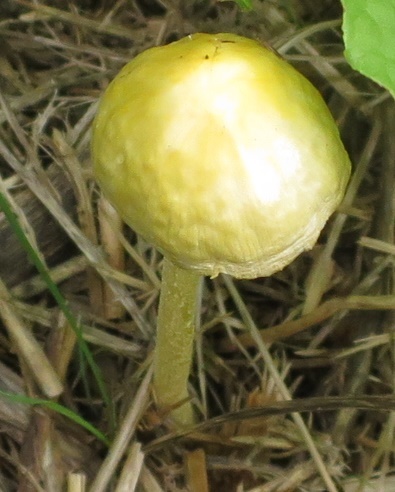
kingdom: Fungi
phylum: Basidiomycota
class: Agaricomycetes
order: Agaricales
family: Bolbitiaceae
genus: Bolbitius
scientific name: Bolbitius titubans
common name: Yellow fieldcap
